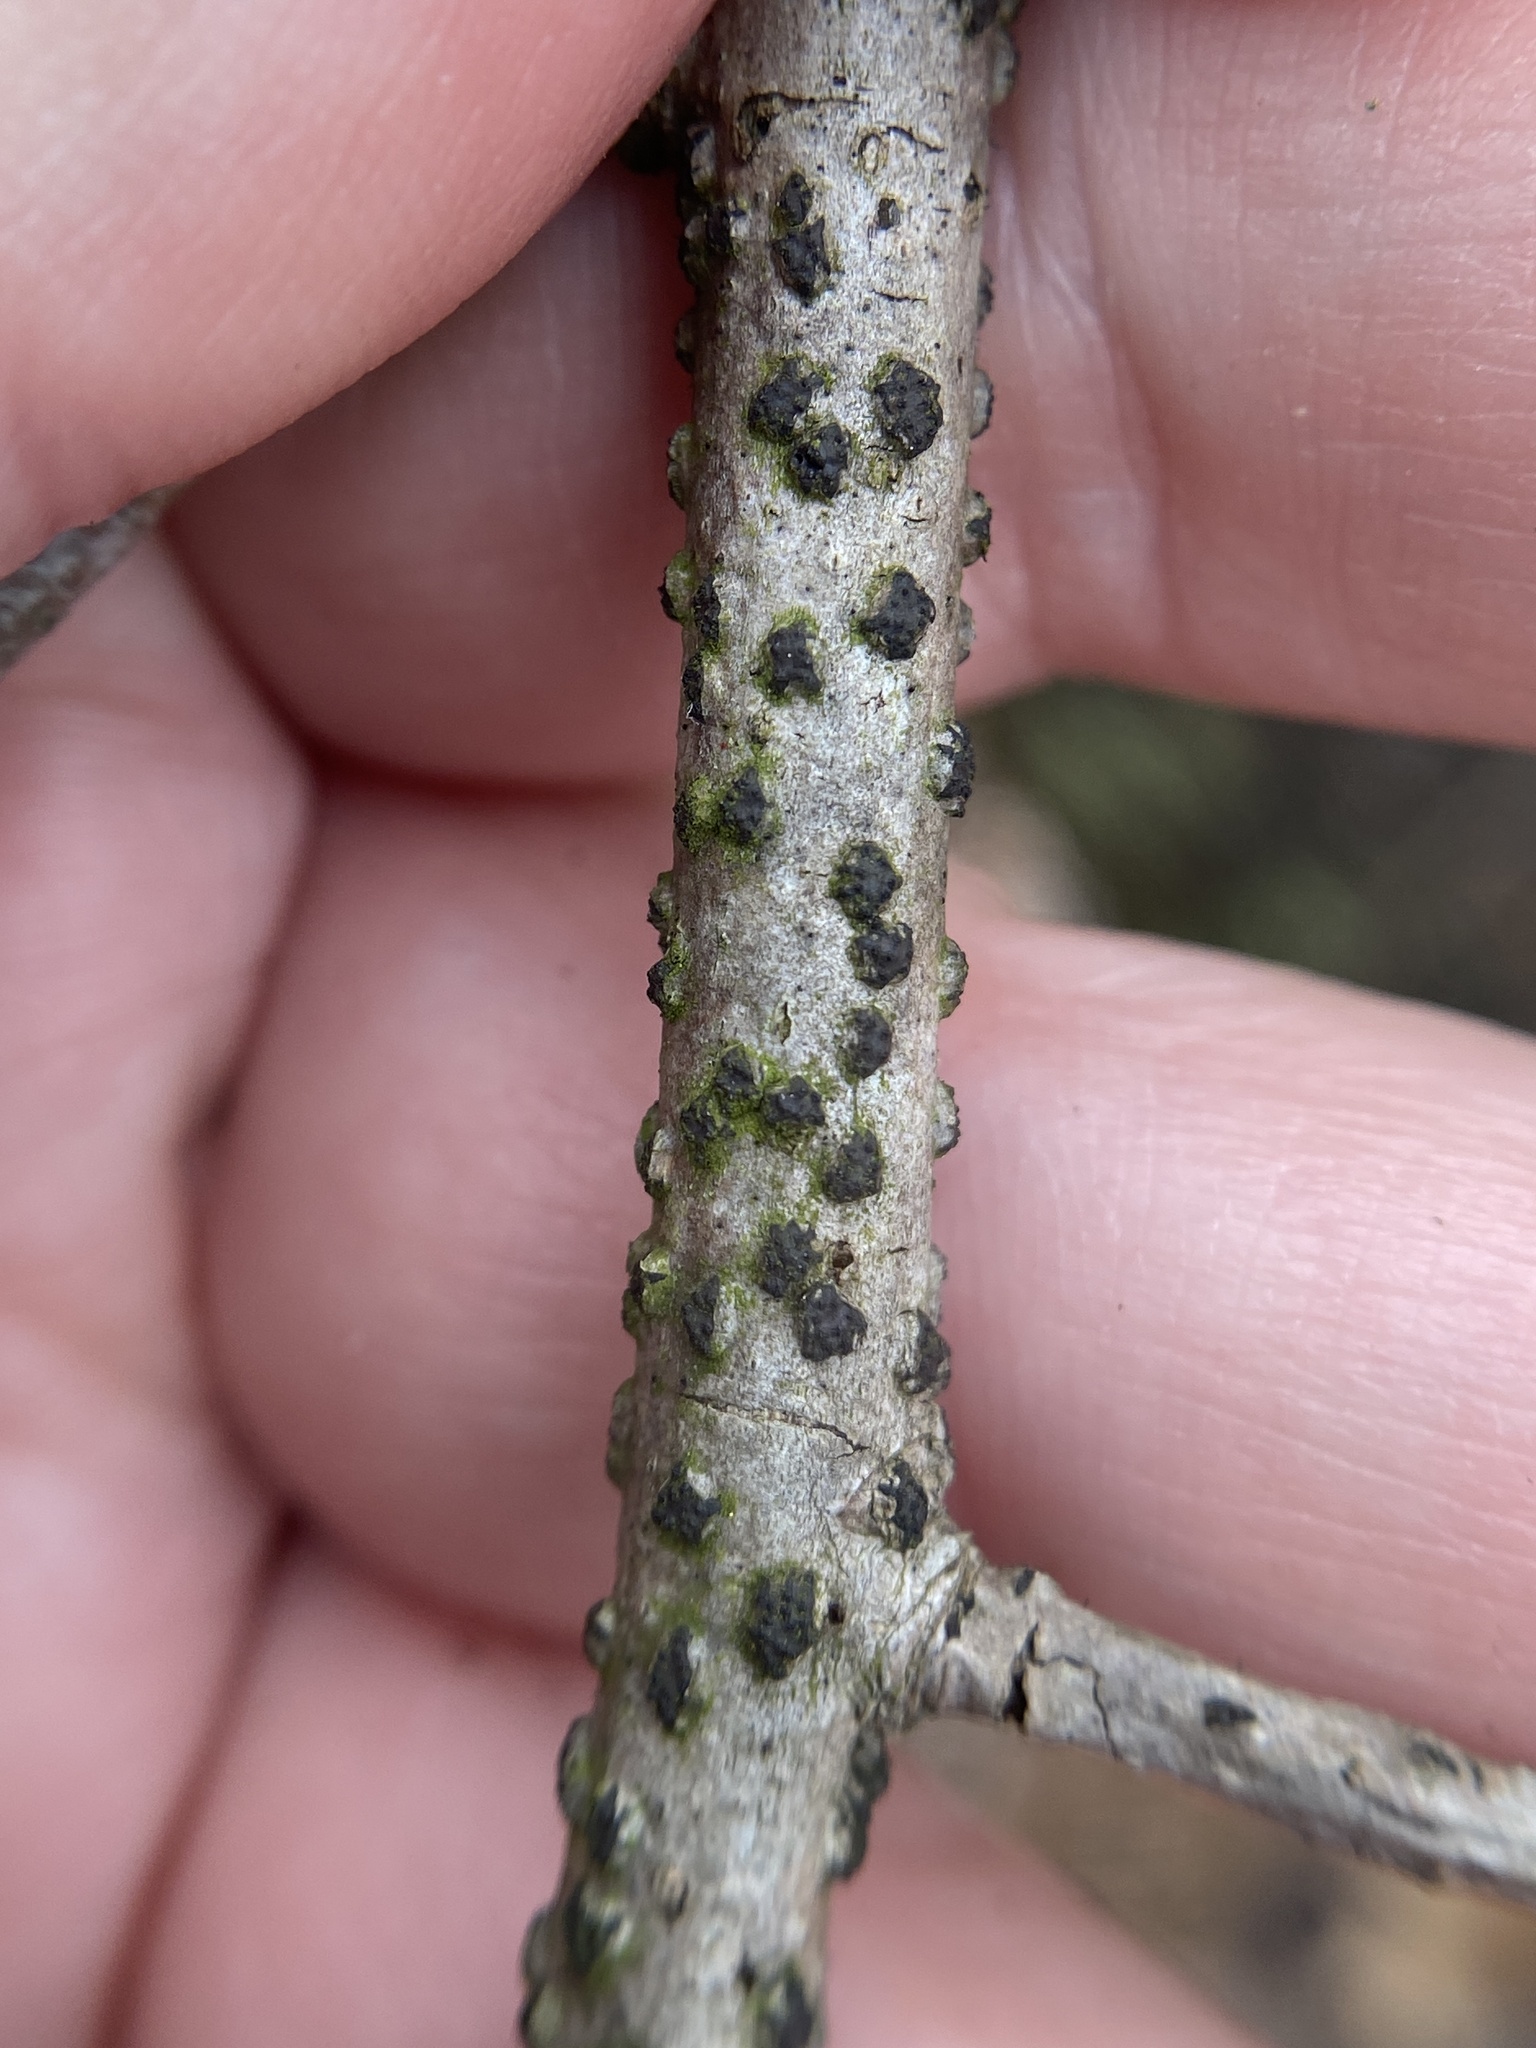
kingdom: Fungi
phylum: Ascomycota
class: Sordariomycetes
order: Xylariales
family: Diatrypaceae
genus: Diatrype
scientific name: Diatrype virescens
